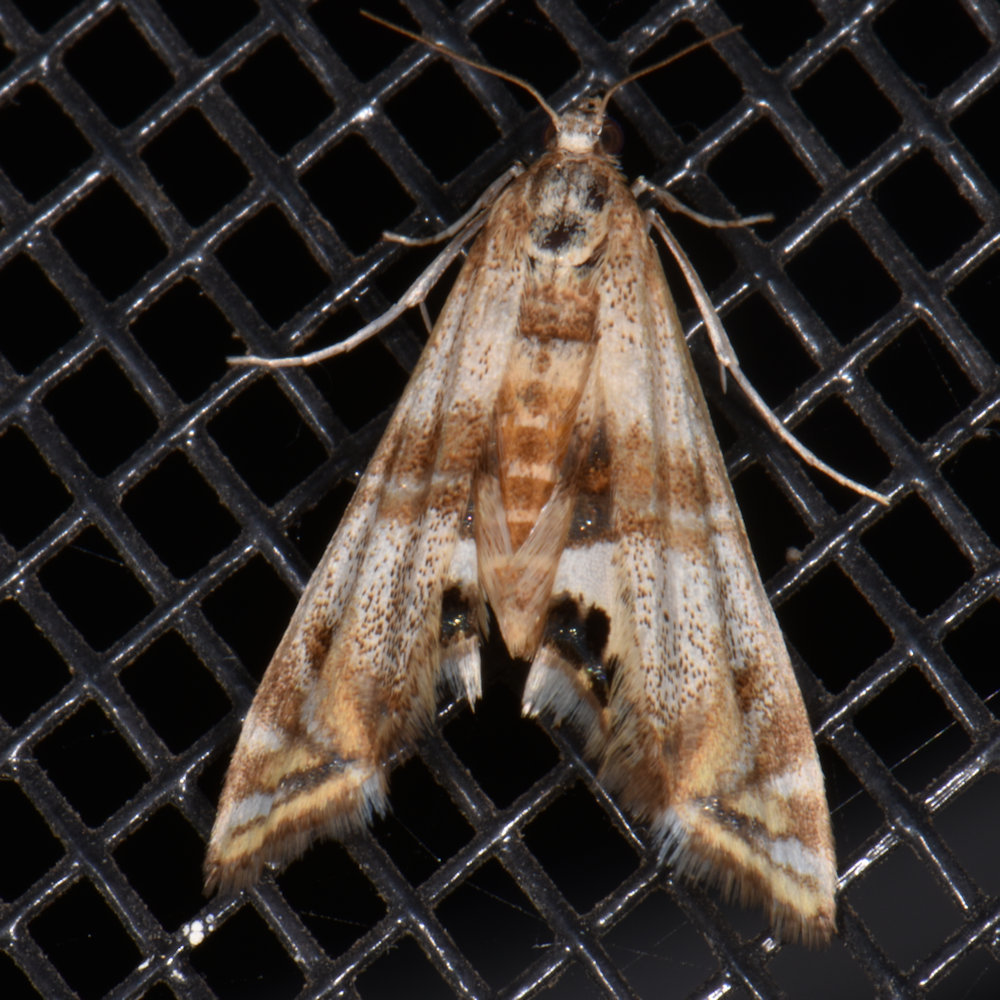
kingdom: Animalia
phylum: Arthropoda
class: Insecta
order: Lepidoptera
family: Crambidae
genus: Petrophila
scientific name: Petrophila bifascialis
